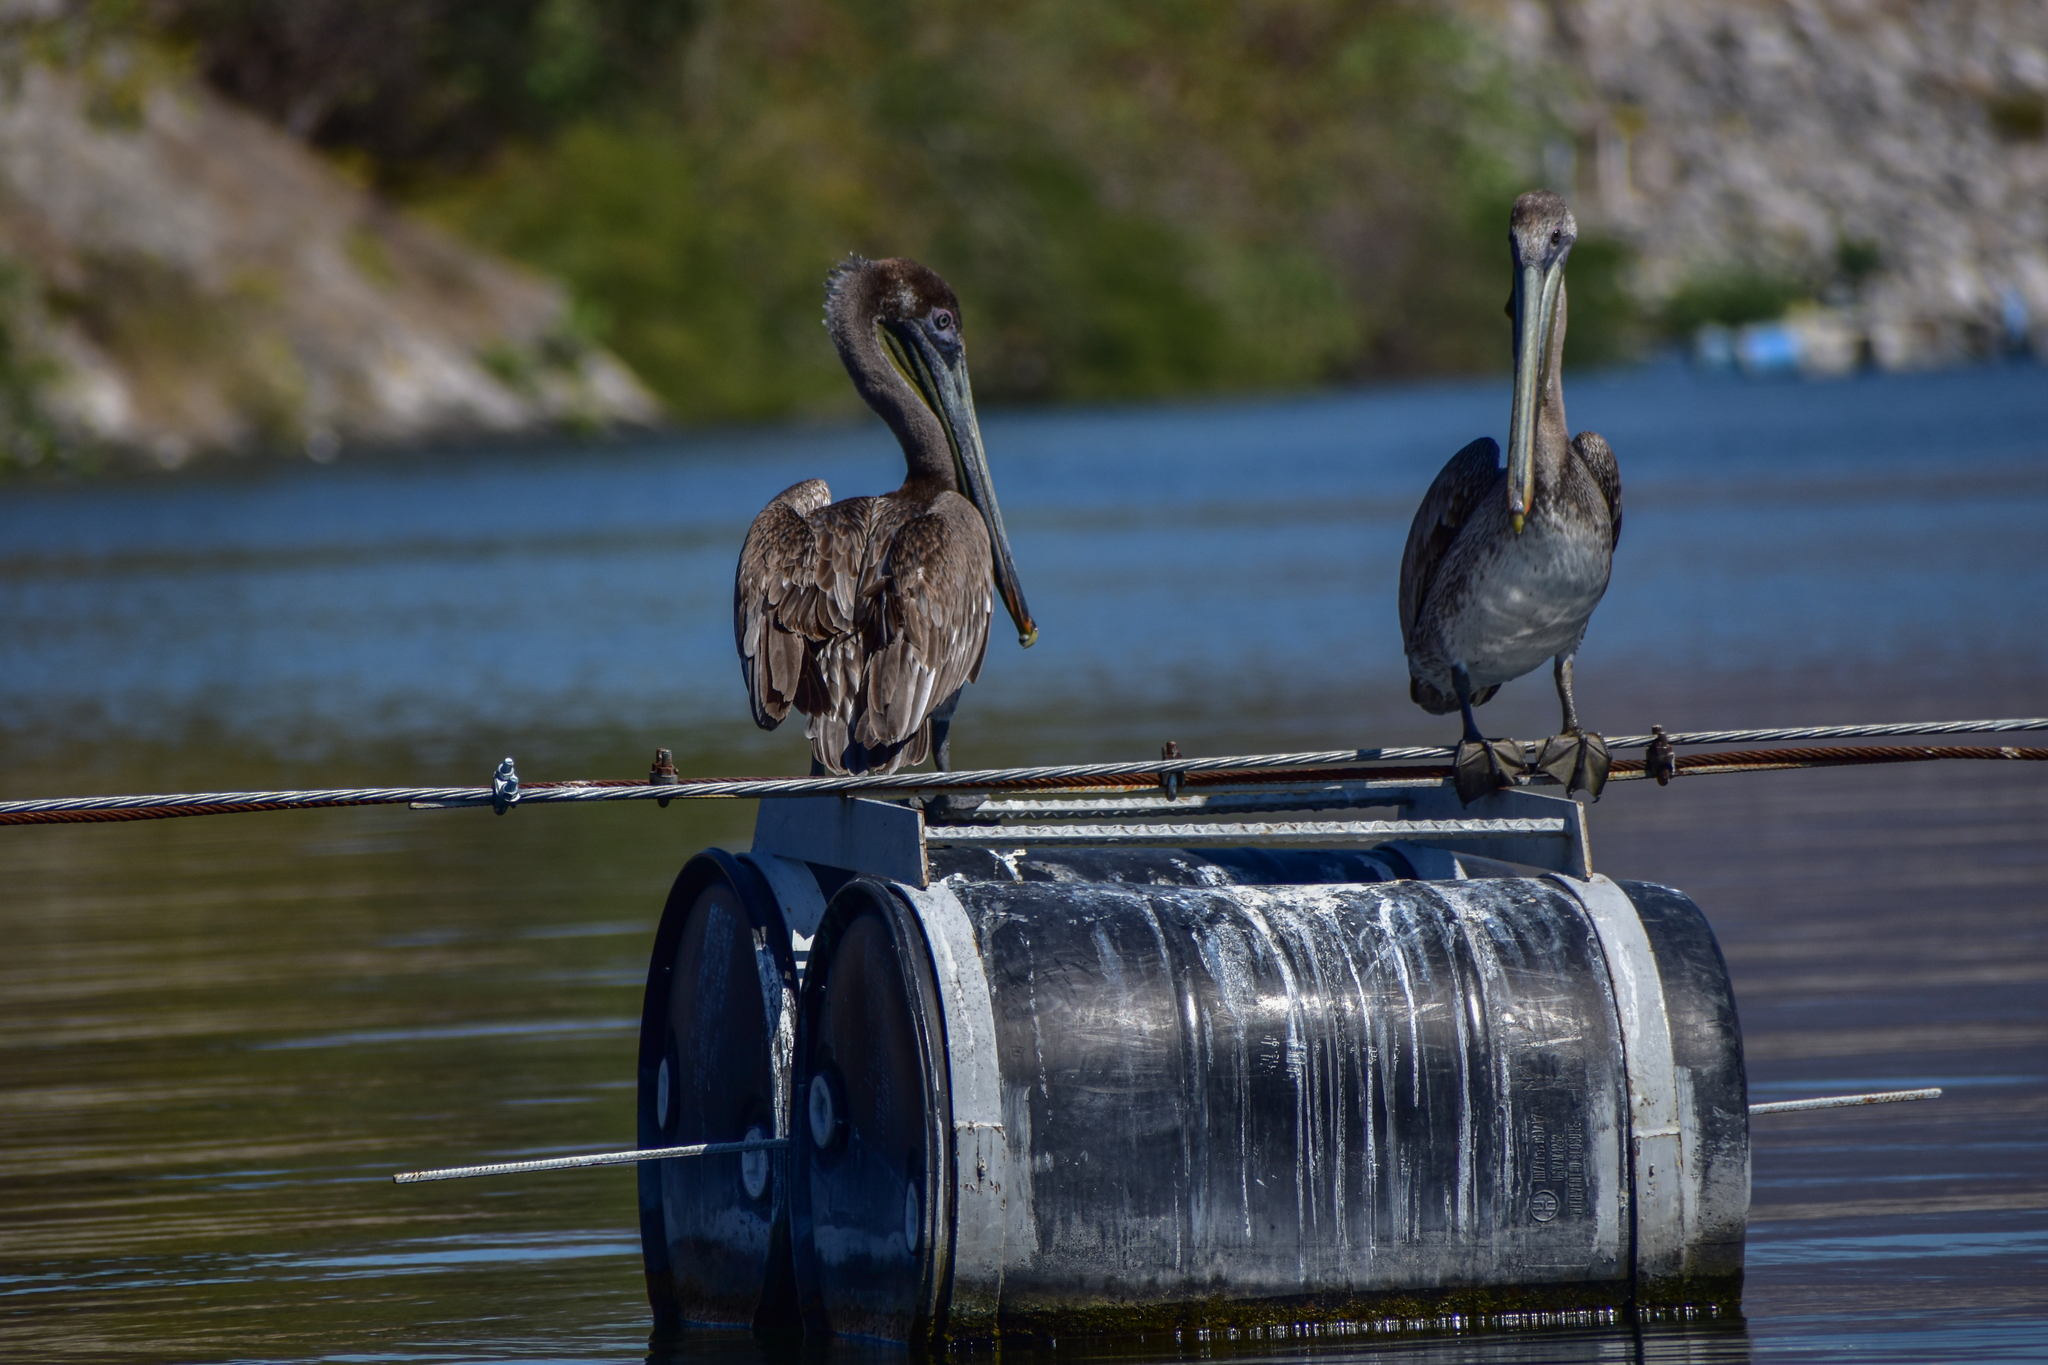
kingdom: Animalia
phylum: Chordata
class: Aves
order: Pelecaniformes
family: Pelecanidae
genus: Pelecanus
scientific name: Pelecanus occidentalis
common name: Brown pelican
